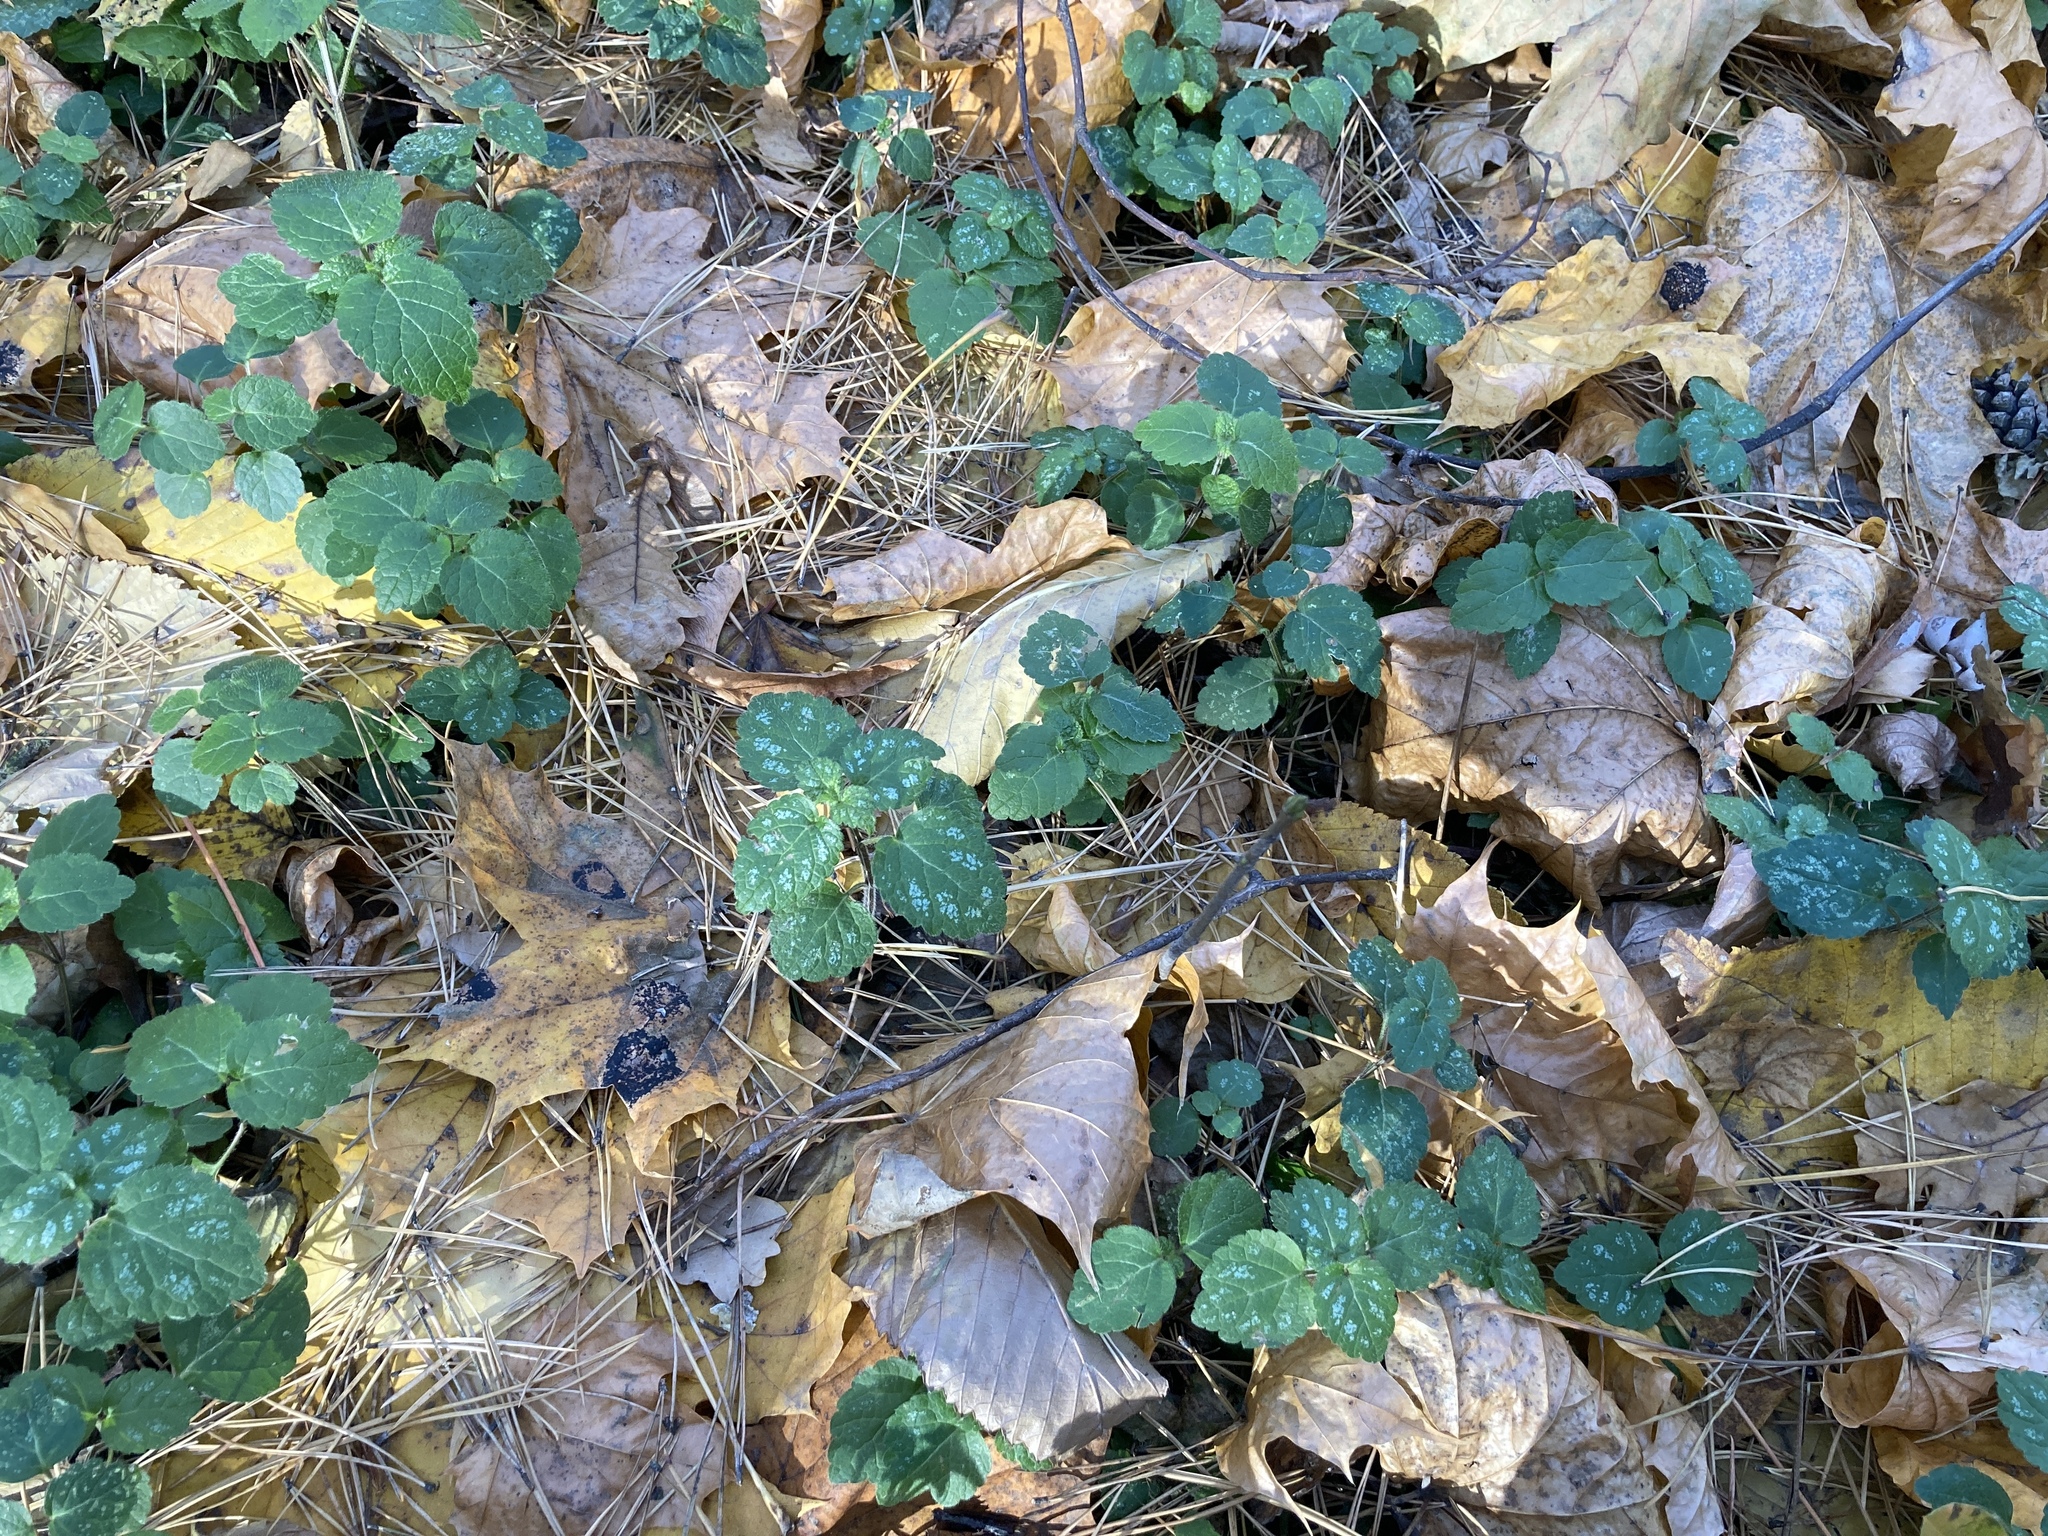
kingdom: Plantae
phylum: Tracheophyta
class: Magnoliopsida
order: Lamiales
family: Lamiaceae
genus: Lamium
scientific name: Lamium galeobdolon
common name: Yellow archangel
